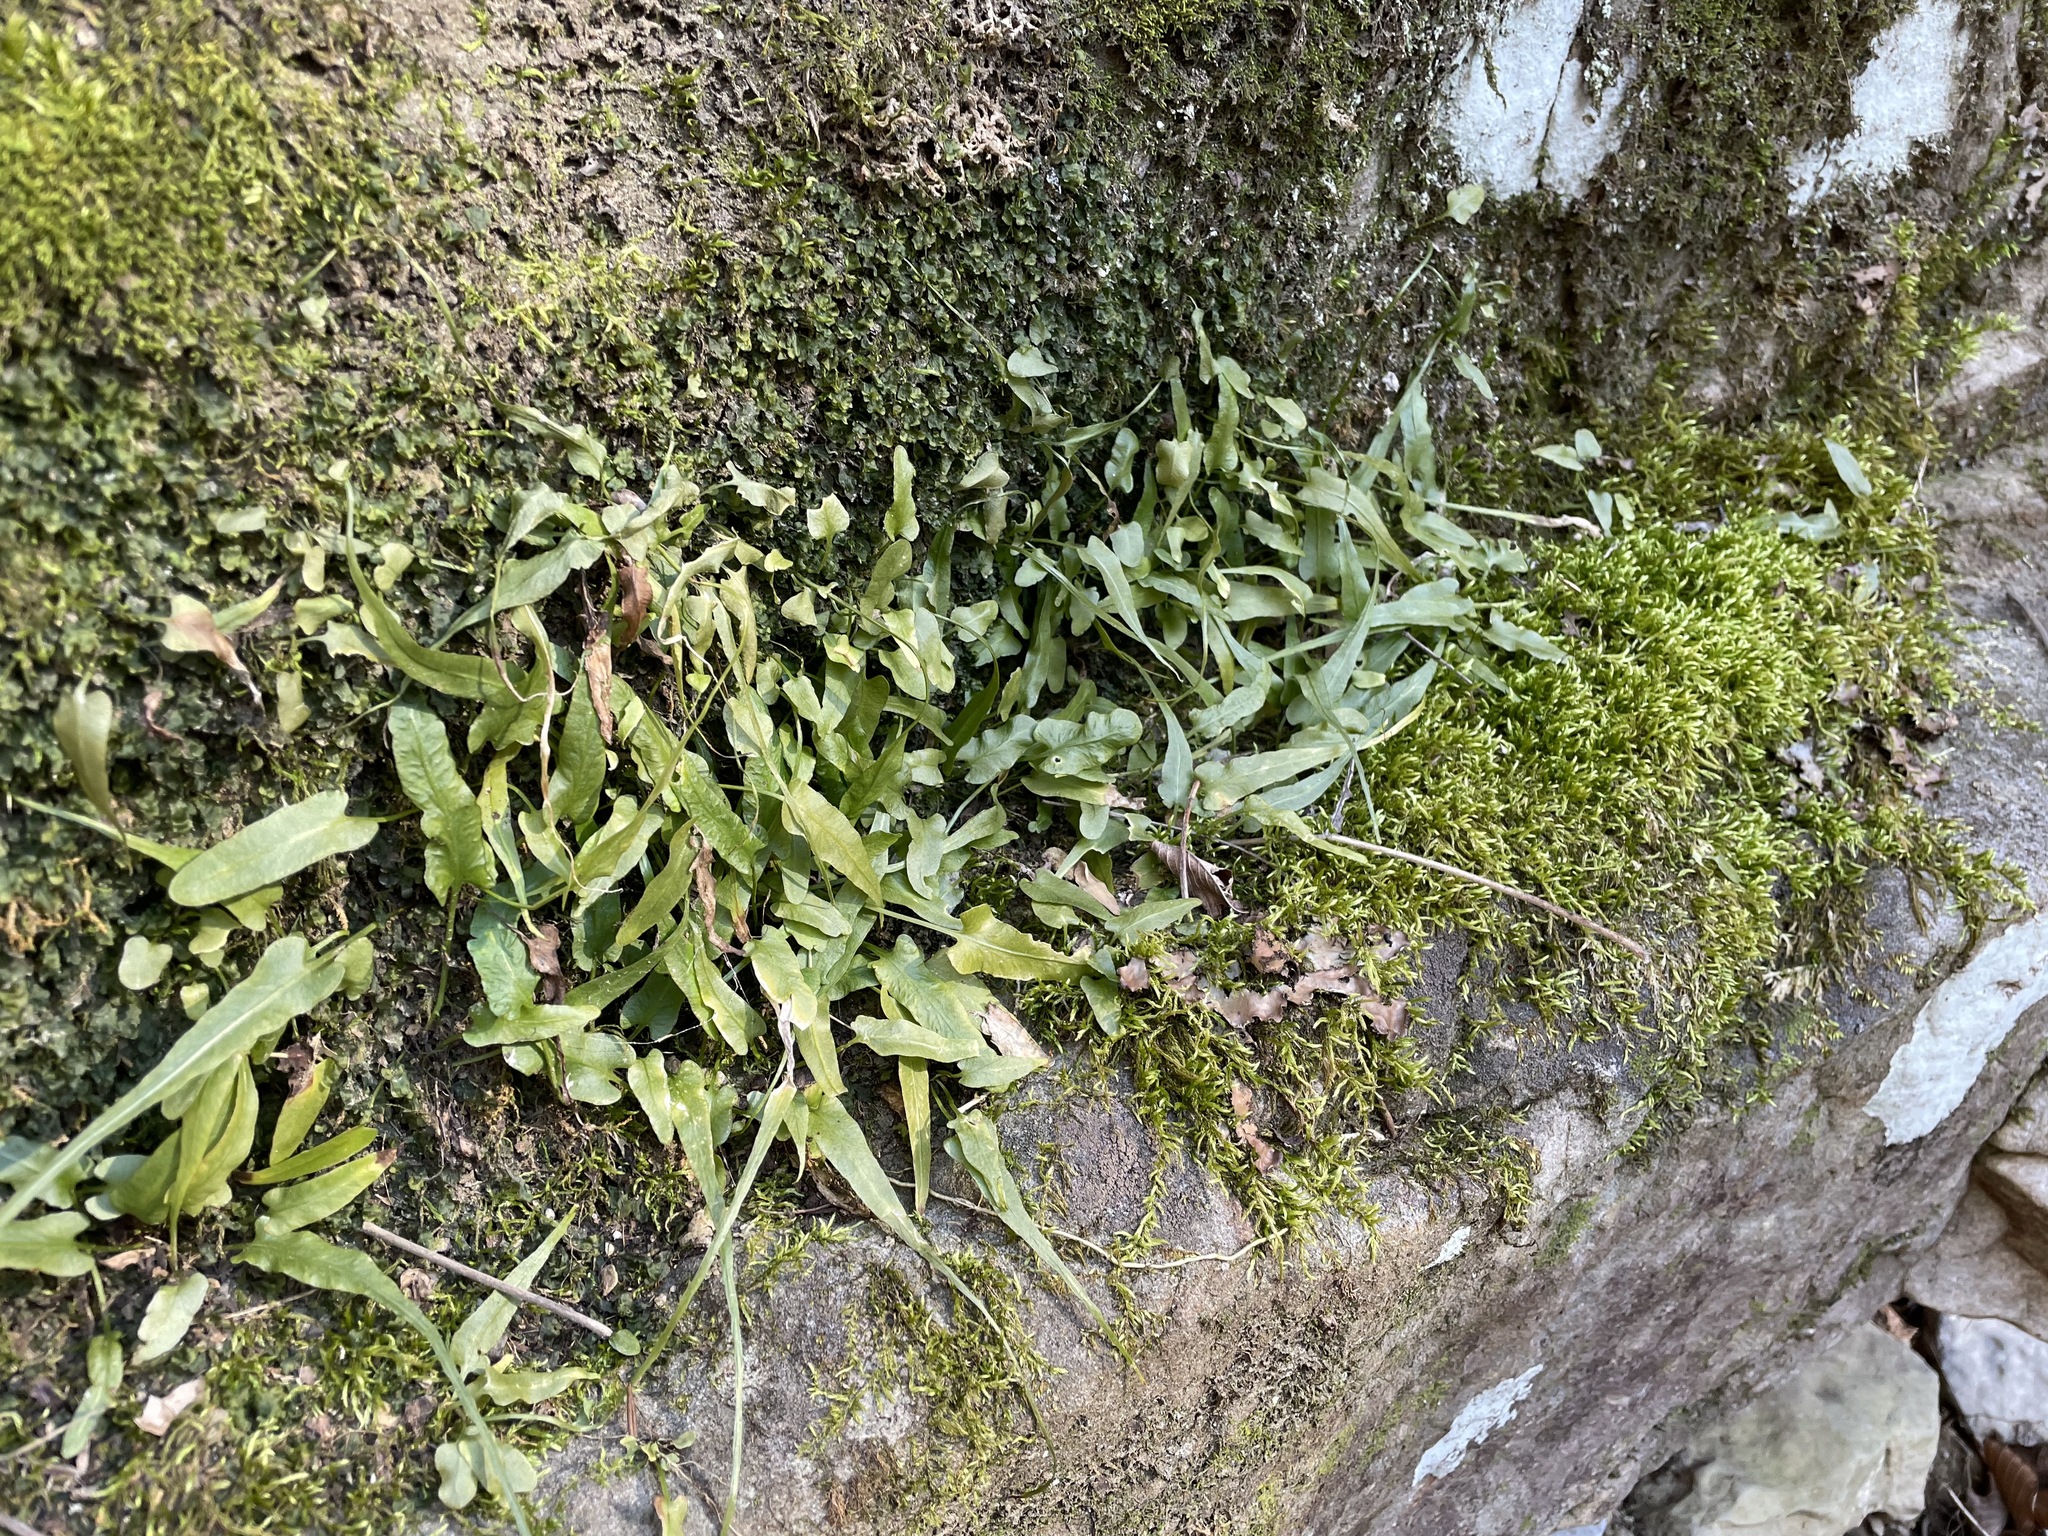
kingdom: Plantae
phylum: Tracheophyta
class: Polypodiopsida
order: Polypodiales
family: Aspleniaceae
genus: Asplenium
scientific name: Asplenium rhizophyllum
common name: Walking fern
